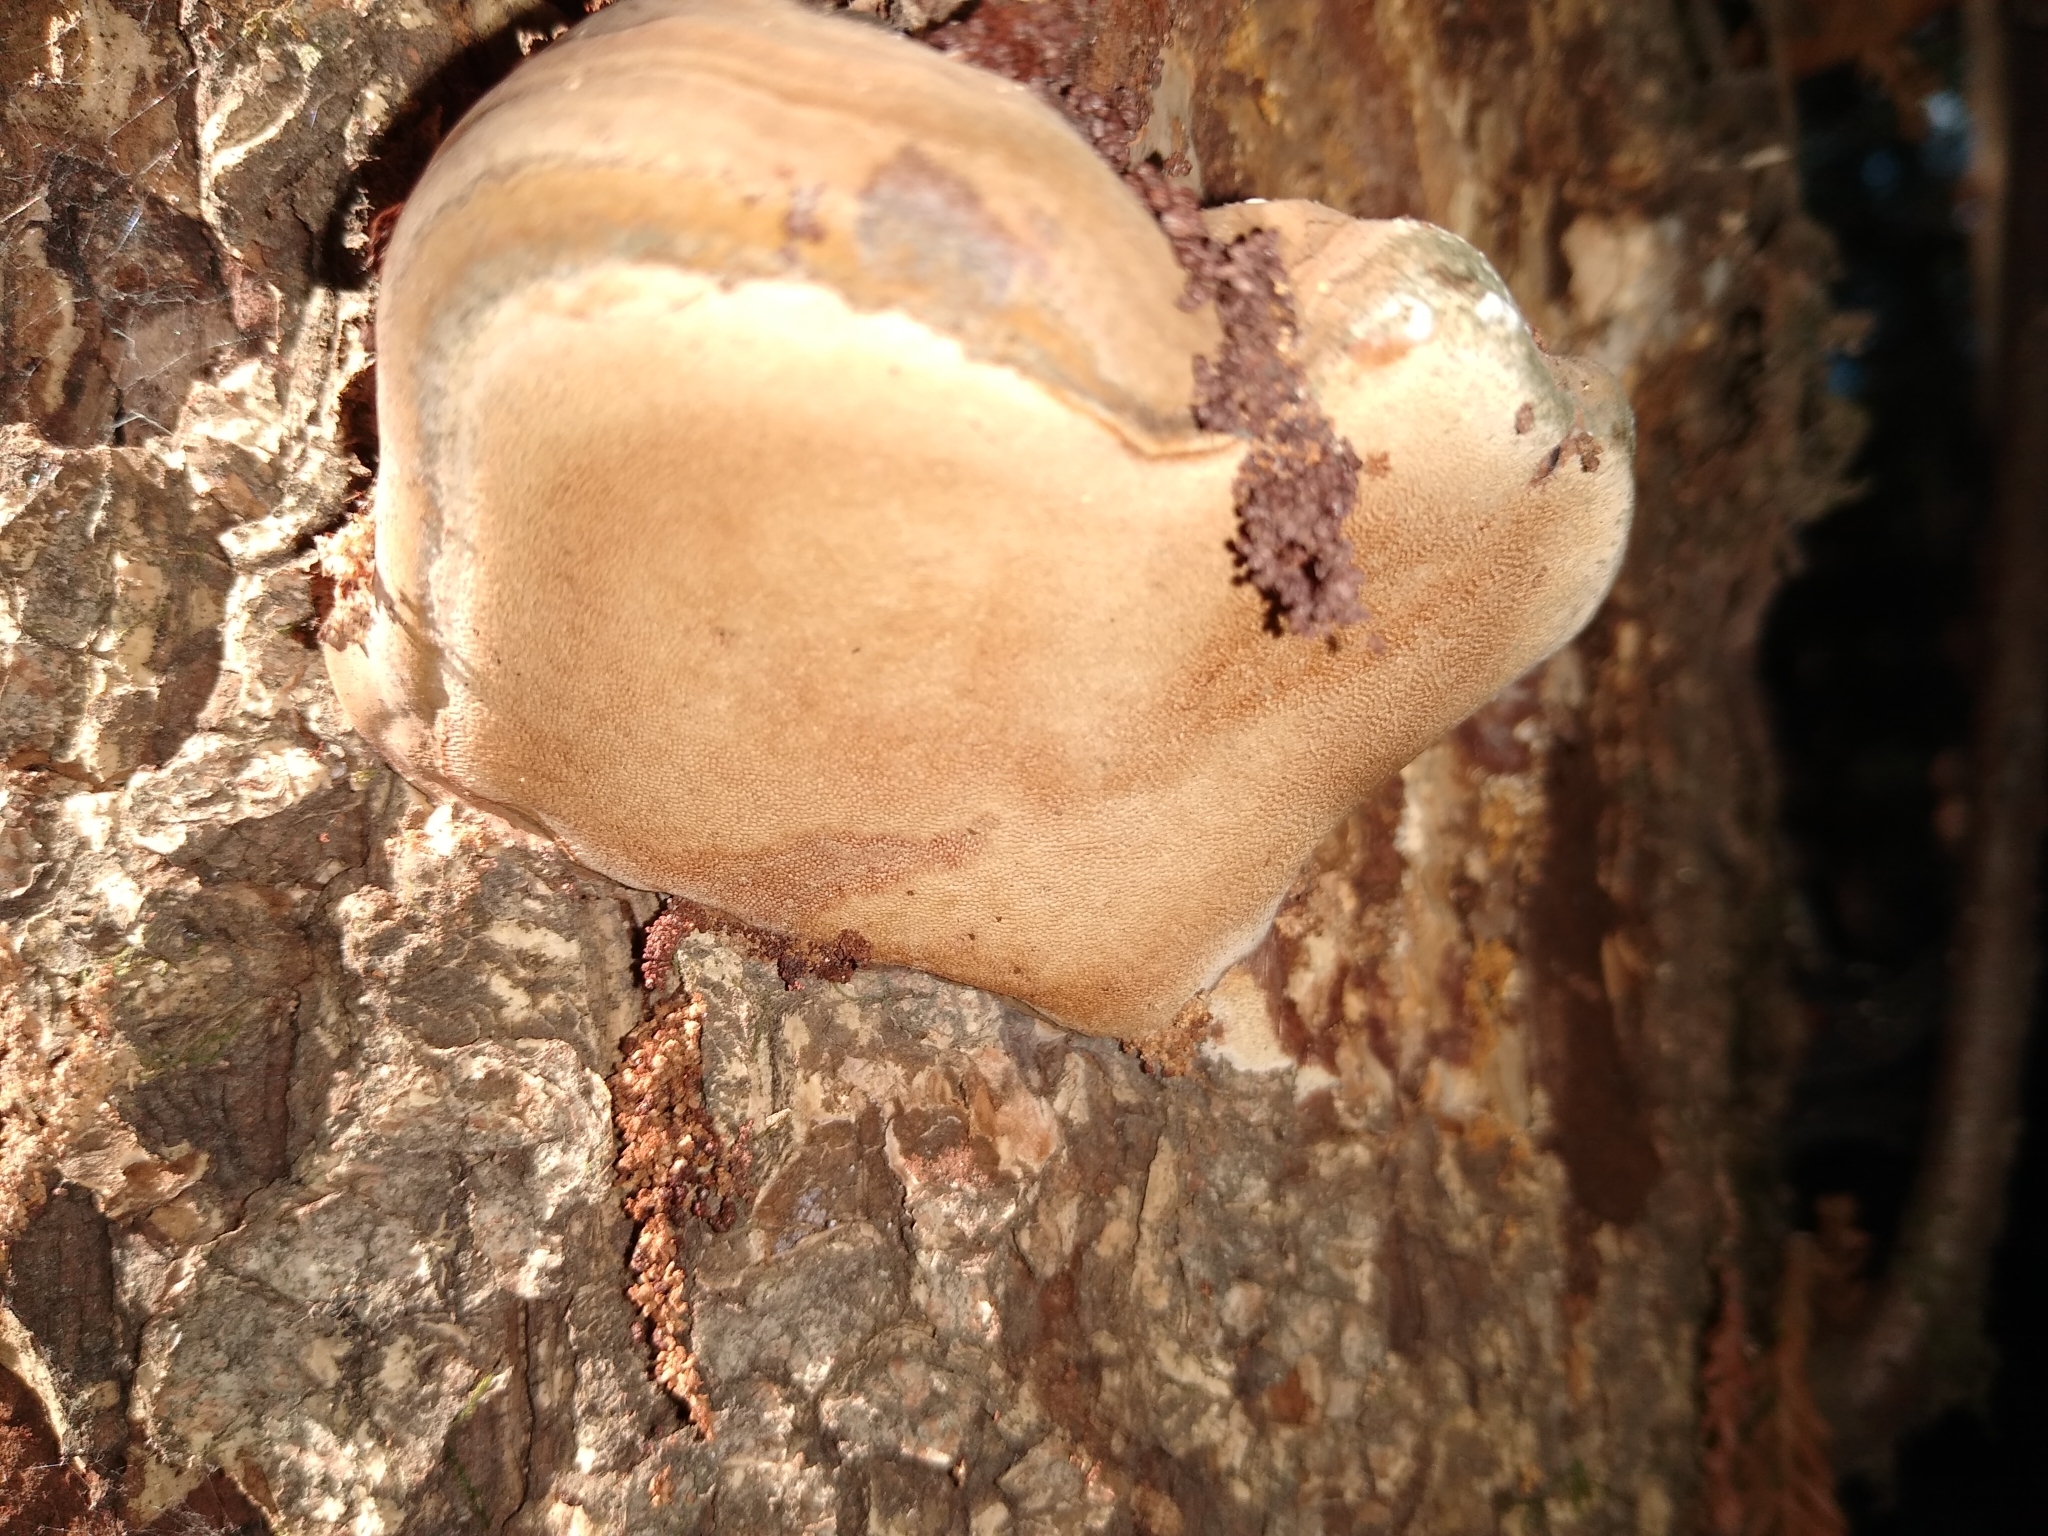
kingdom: Fungi
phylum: Basidiomycota
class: Agaricomycetes
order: Polyporales
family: Polyporaceae
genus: Ganoderma
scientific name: Ganoderma brownii
